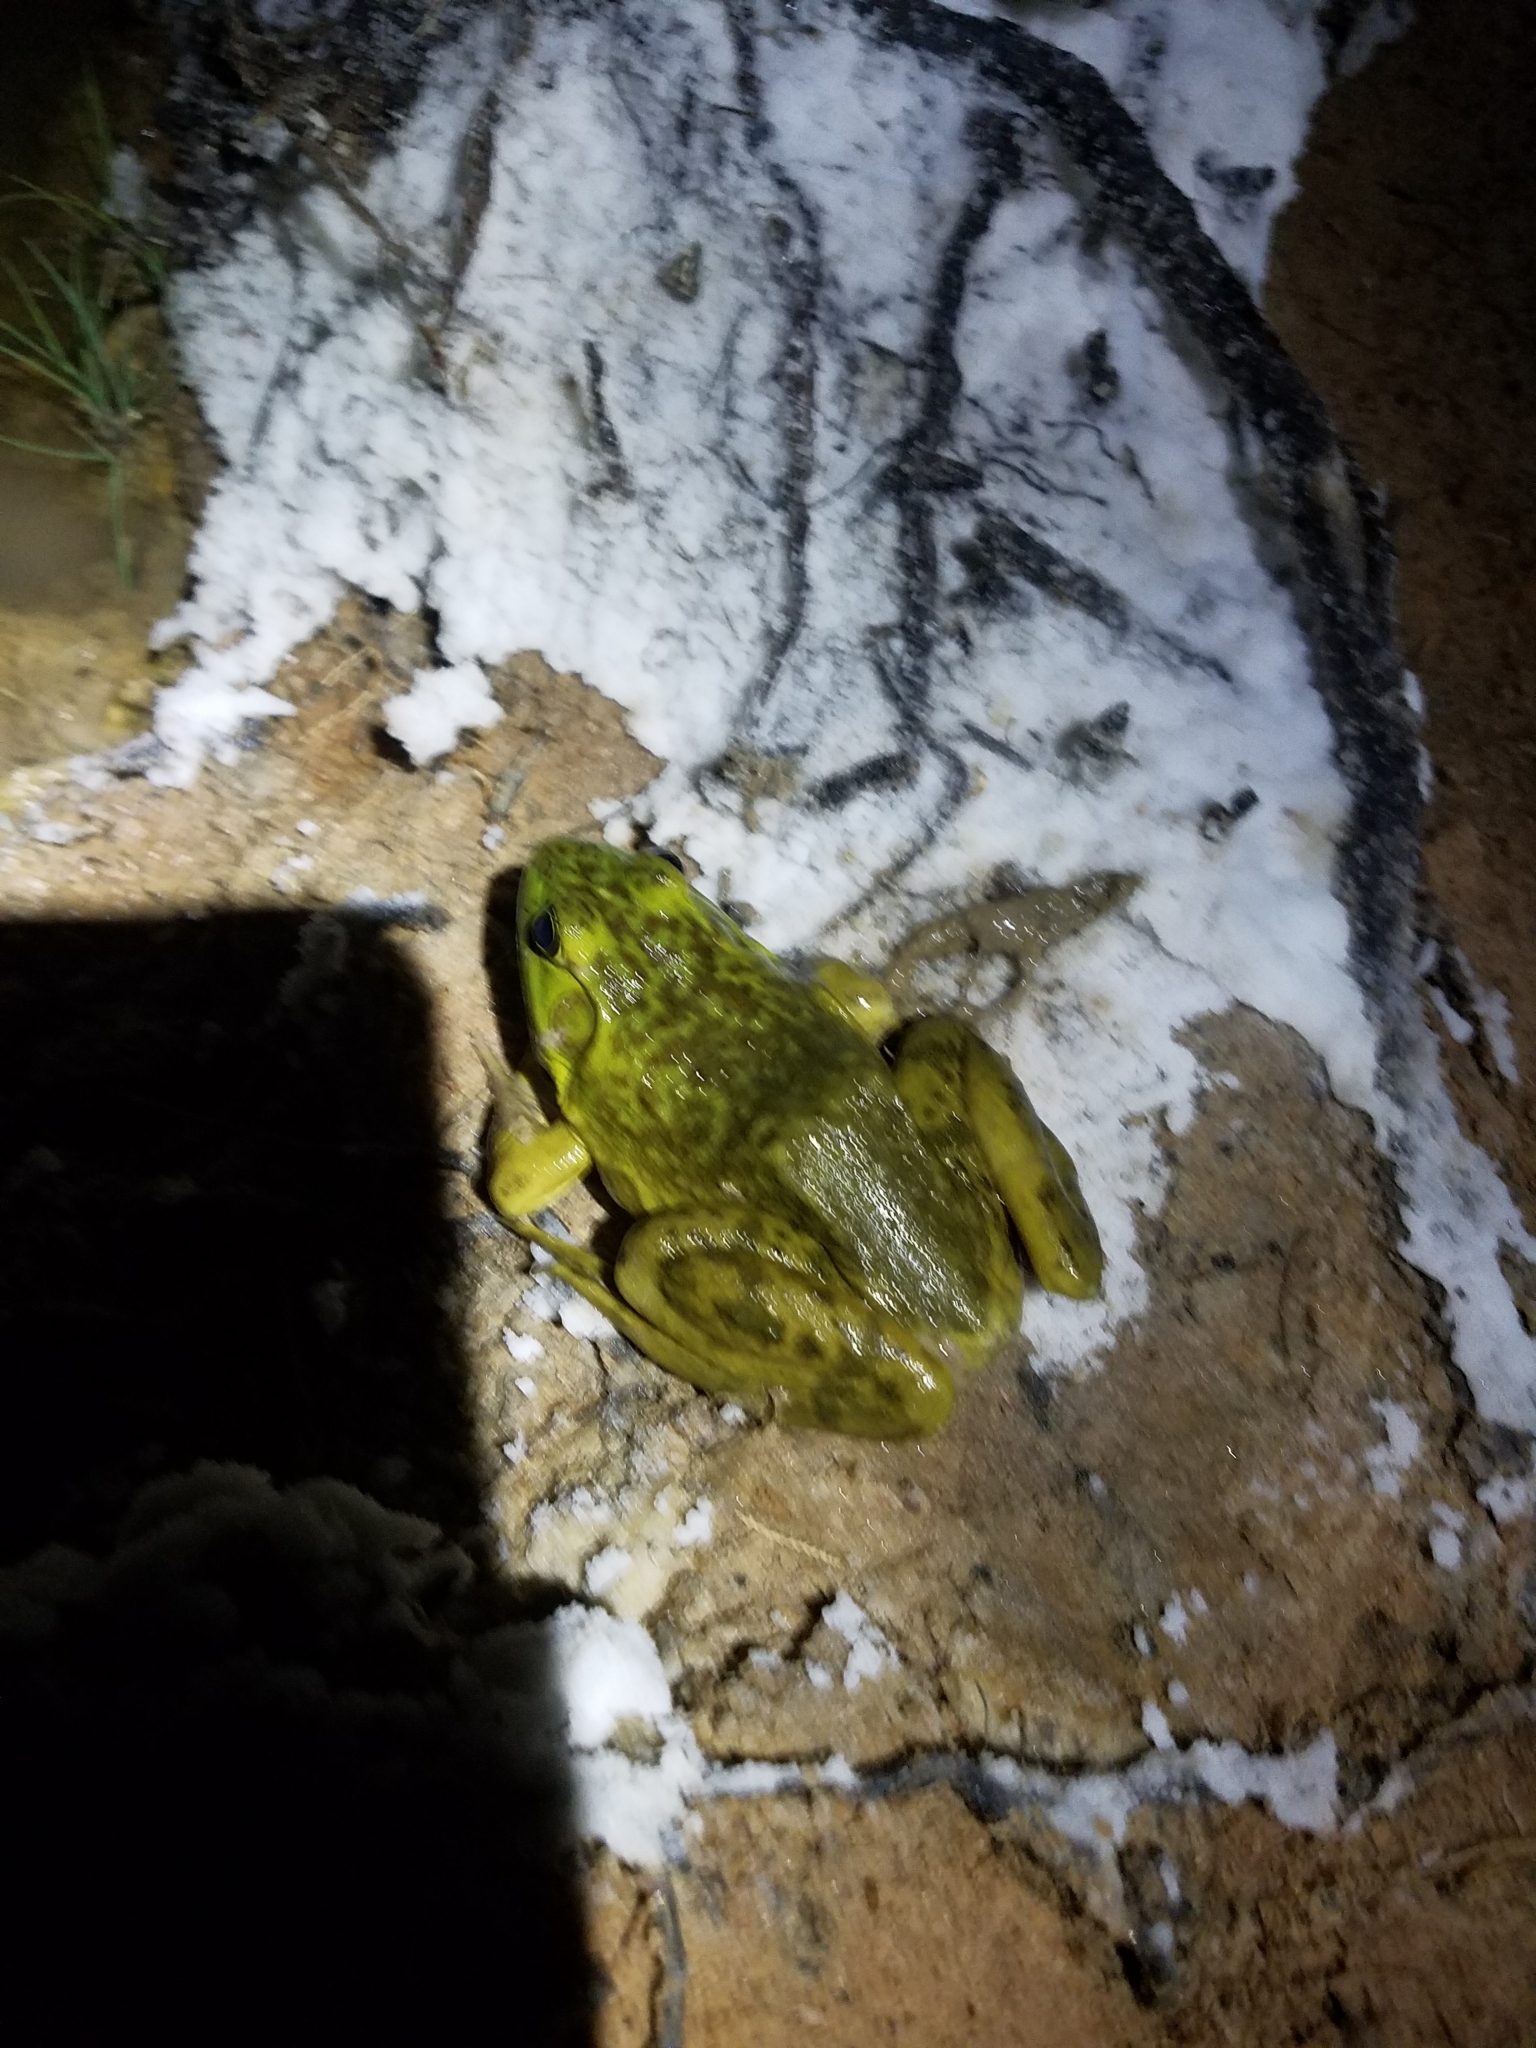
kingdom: Animalia
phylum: Chordata
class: Amphibia
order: Anura
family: Ranidae
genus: Lithobates
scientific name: Lithobates catesbeianus
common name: American bullfrog
